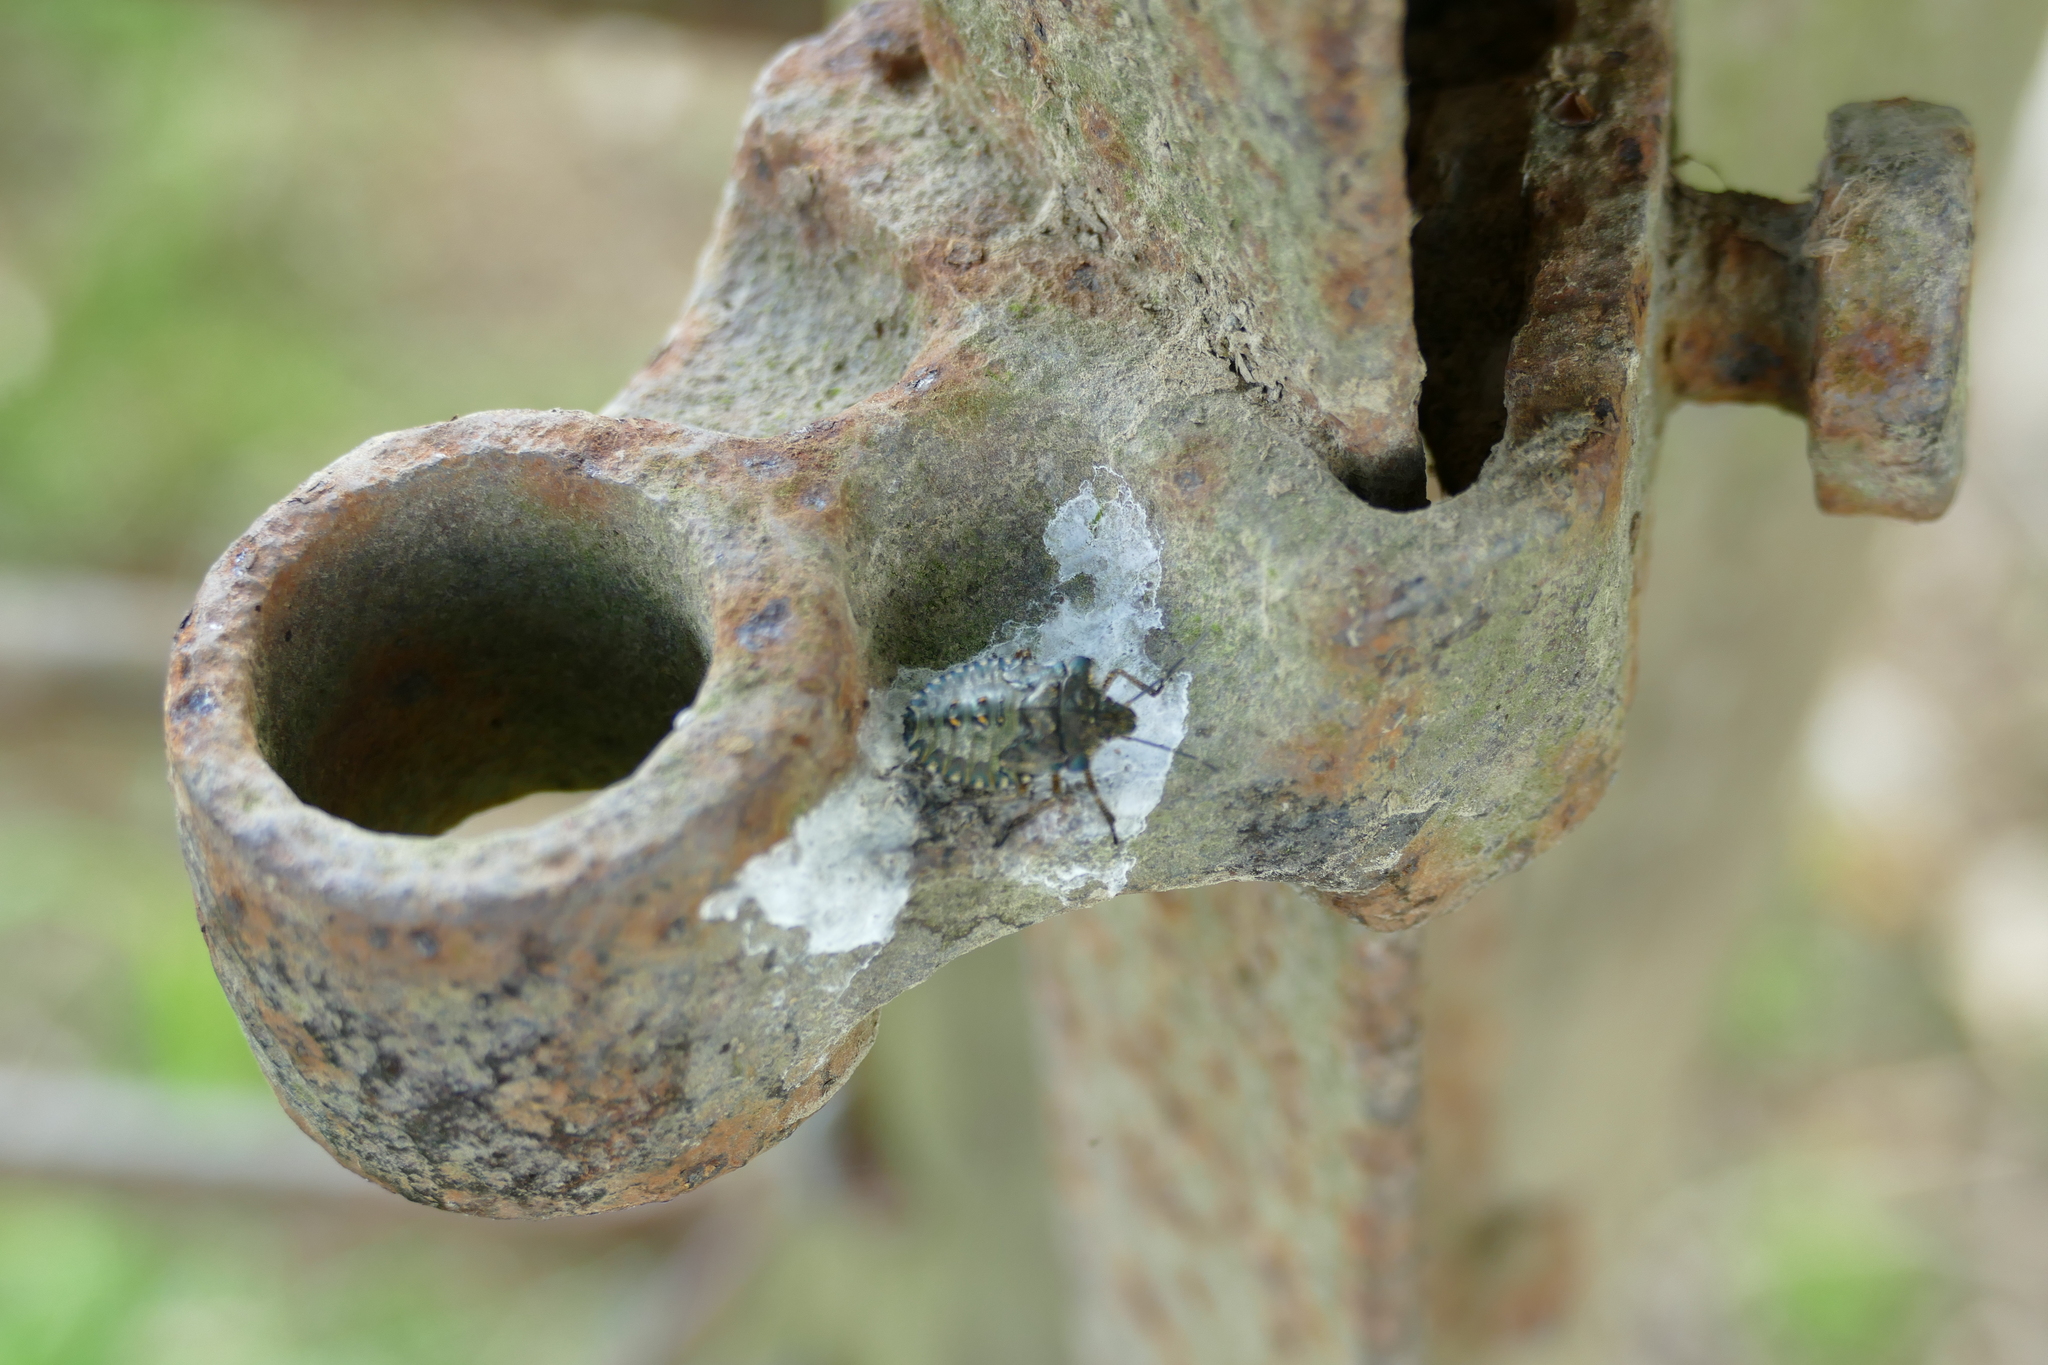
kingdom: Animalia
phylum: Arthropoda
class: Insecta
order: Hemiptera
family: Pentatomidae
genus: Pentatoma
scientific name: Pentatoma rufipes
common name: Forest bug
